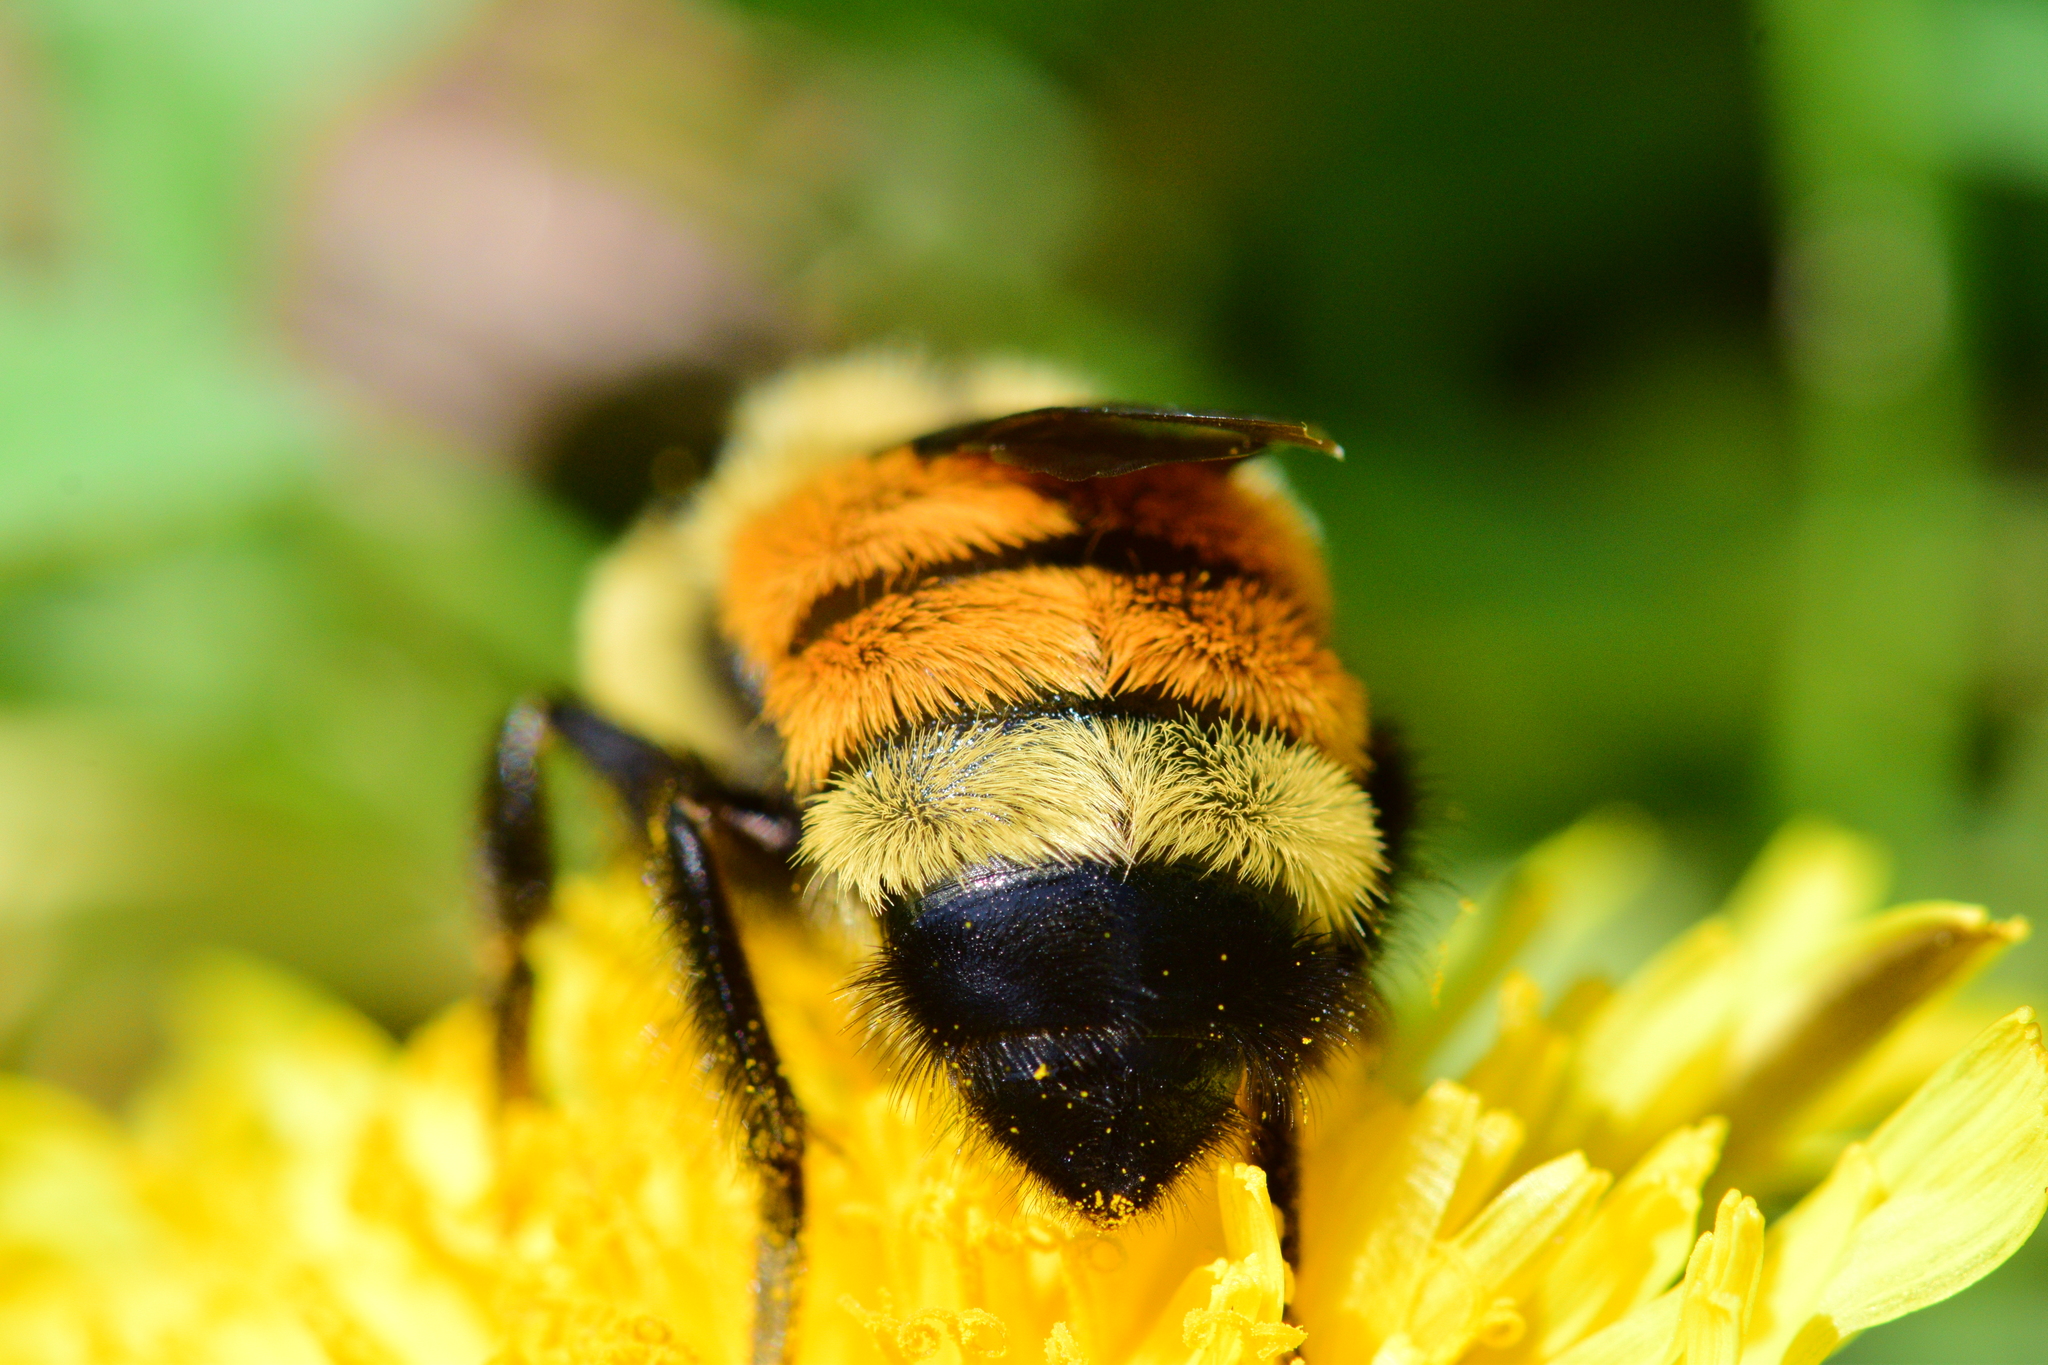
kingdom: Animalia
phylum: Arthropoda
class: Insecta
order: Hymenoptera
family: Apidae
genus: Bombus
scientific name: Bombus ternarius
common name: Tri-colored bumble bee
